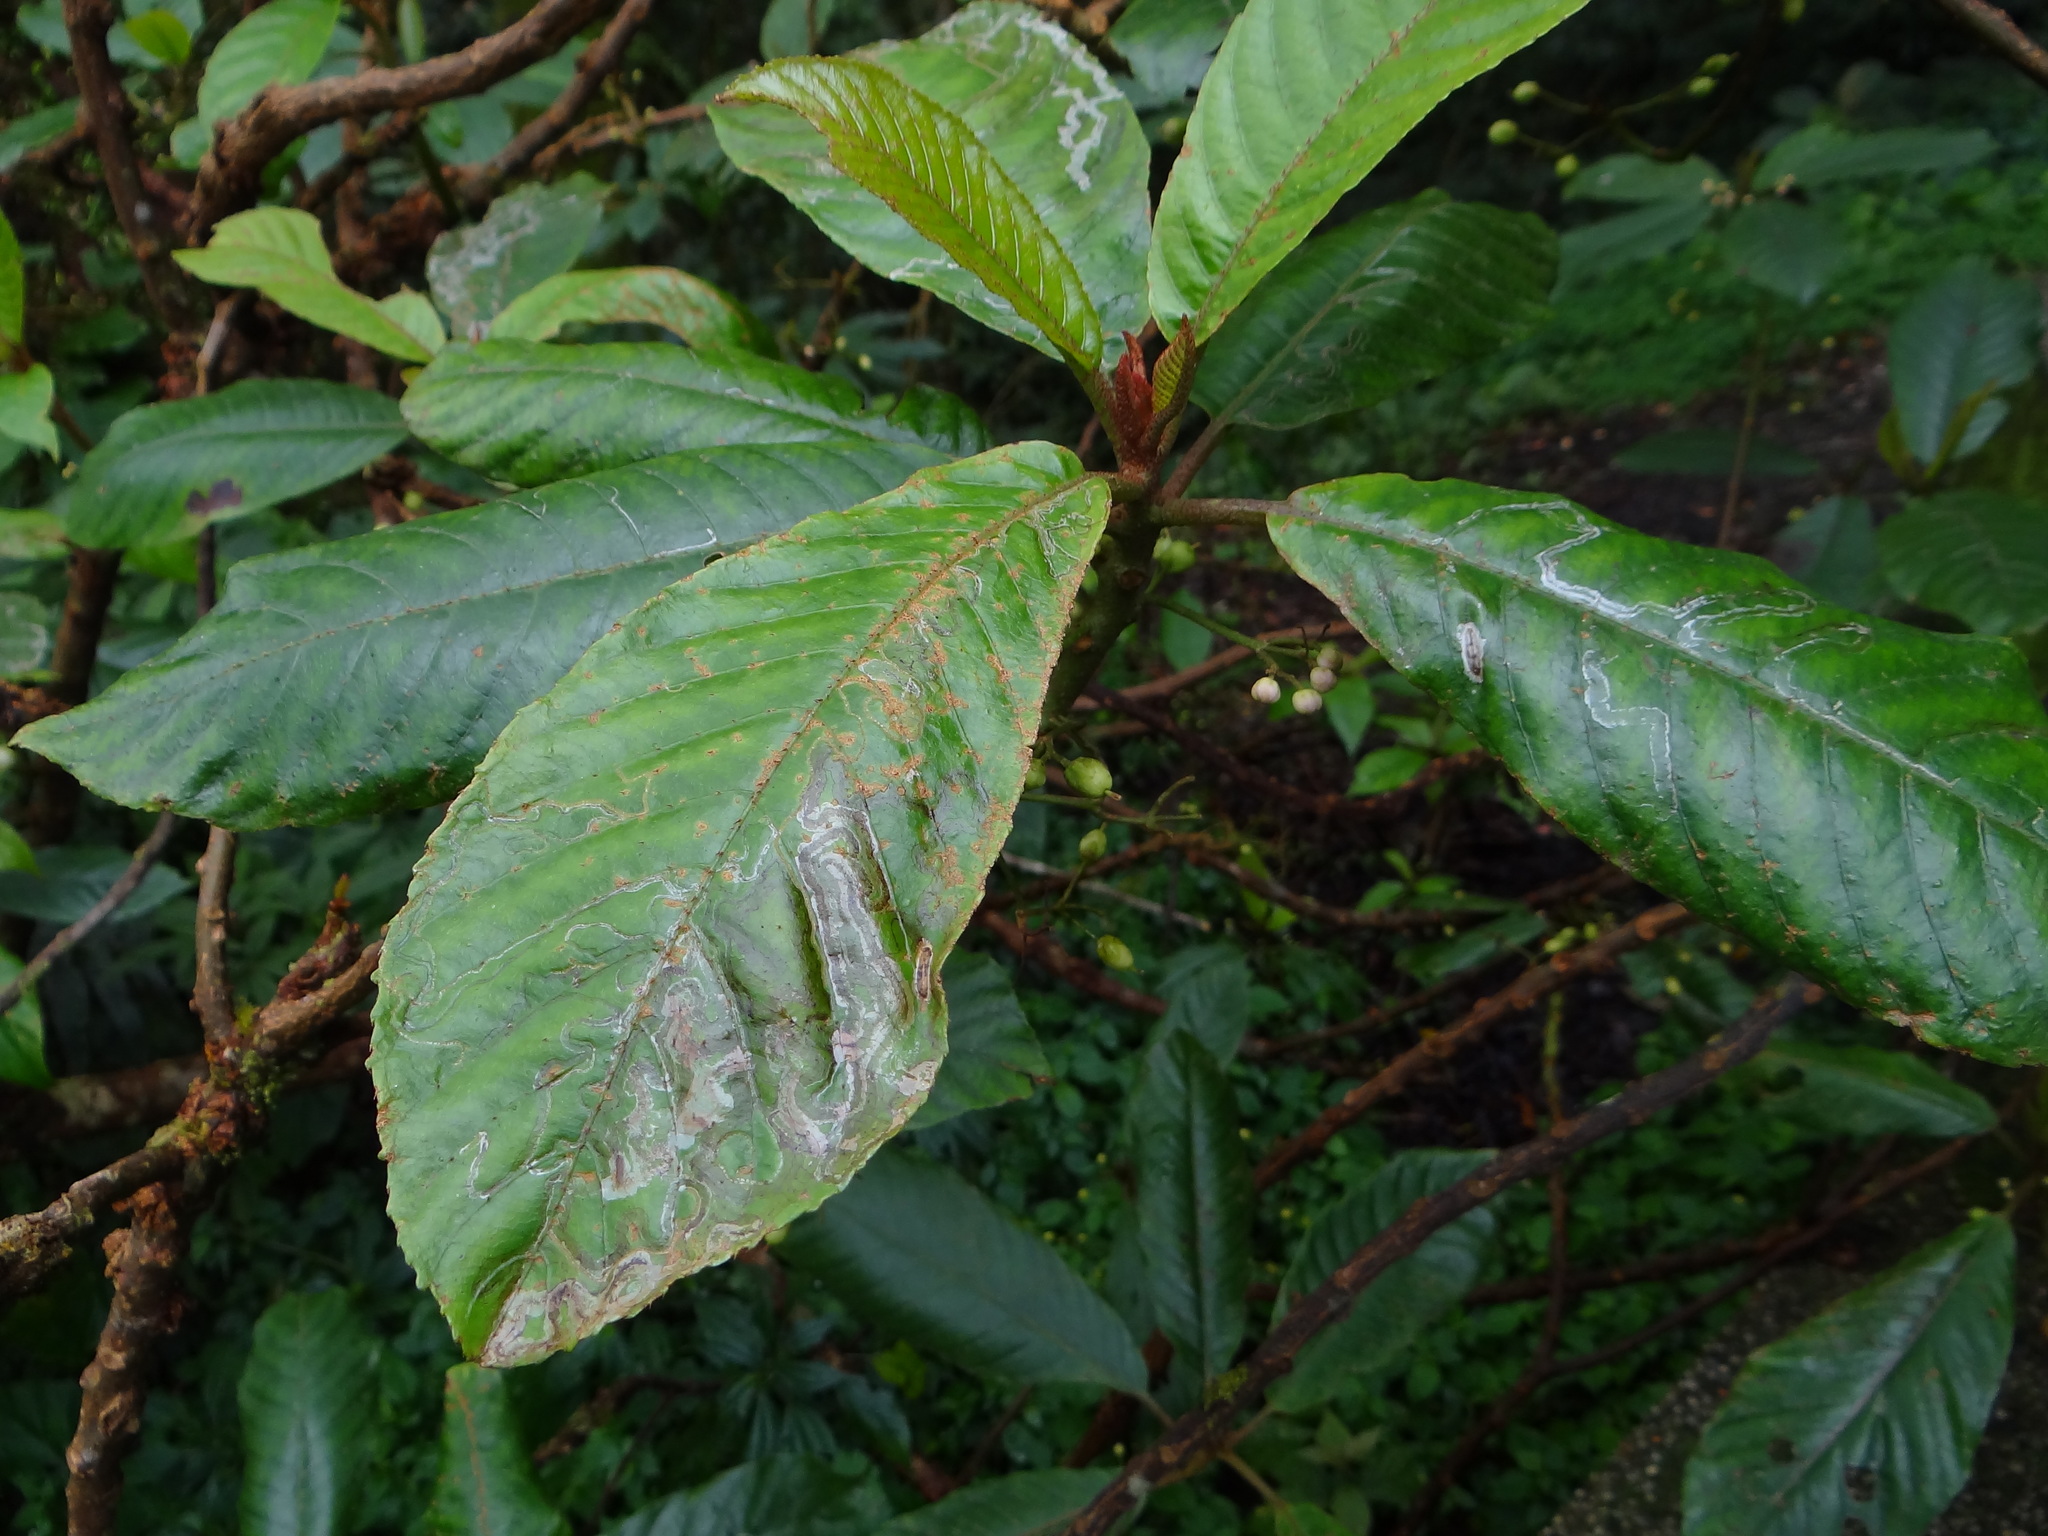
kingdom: Plantae
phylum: Tracheophyta
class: Magnoliopsida
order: Ericales
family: Actinidiaceae
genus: Saurauia
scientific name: Saurauia tristyla
